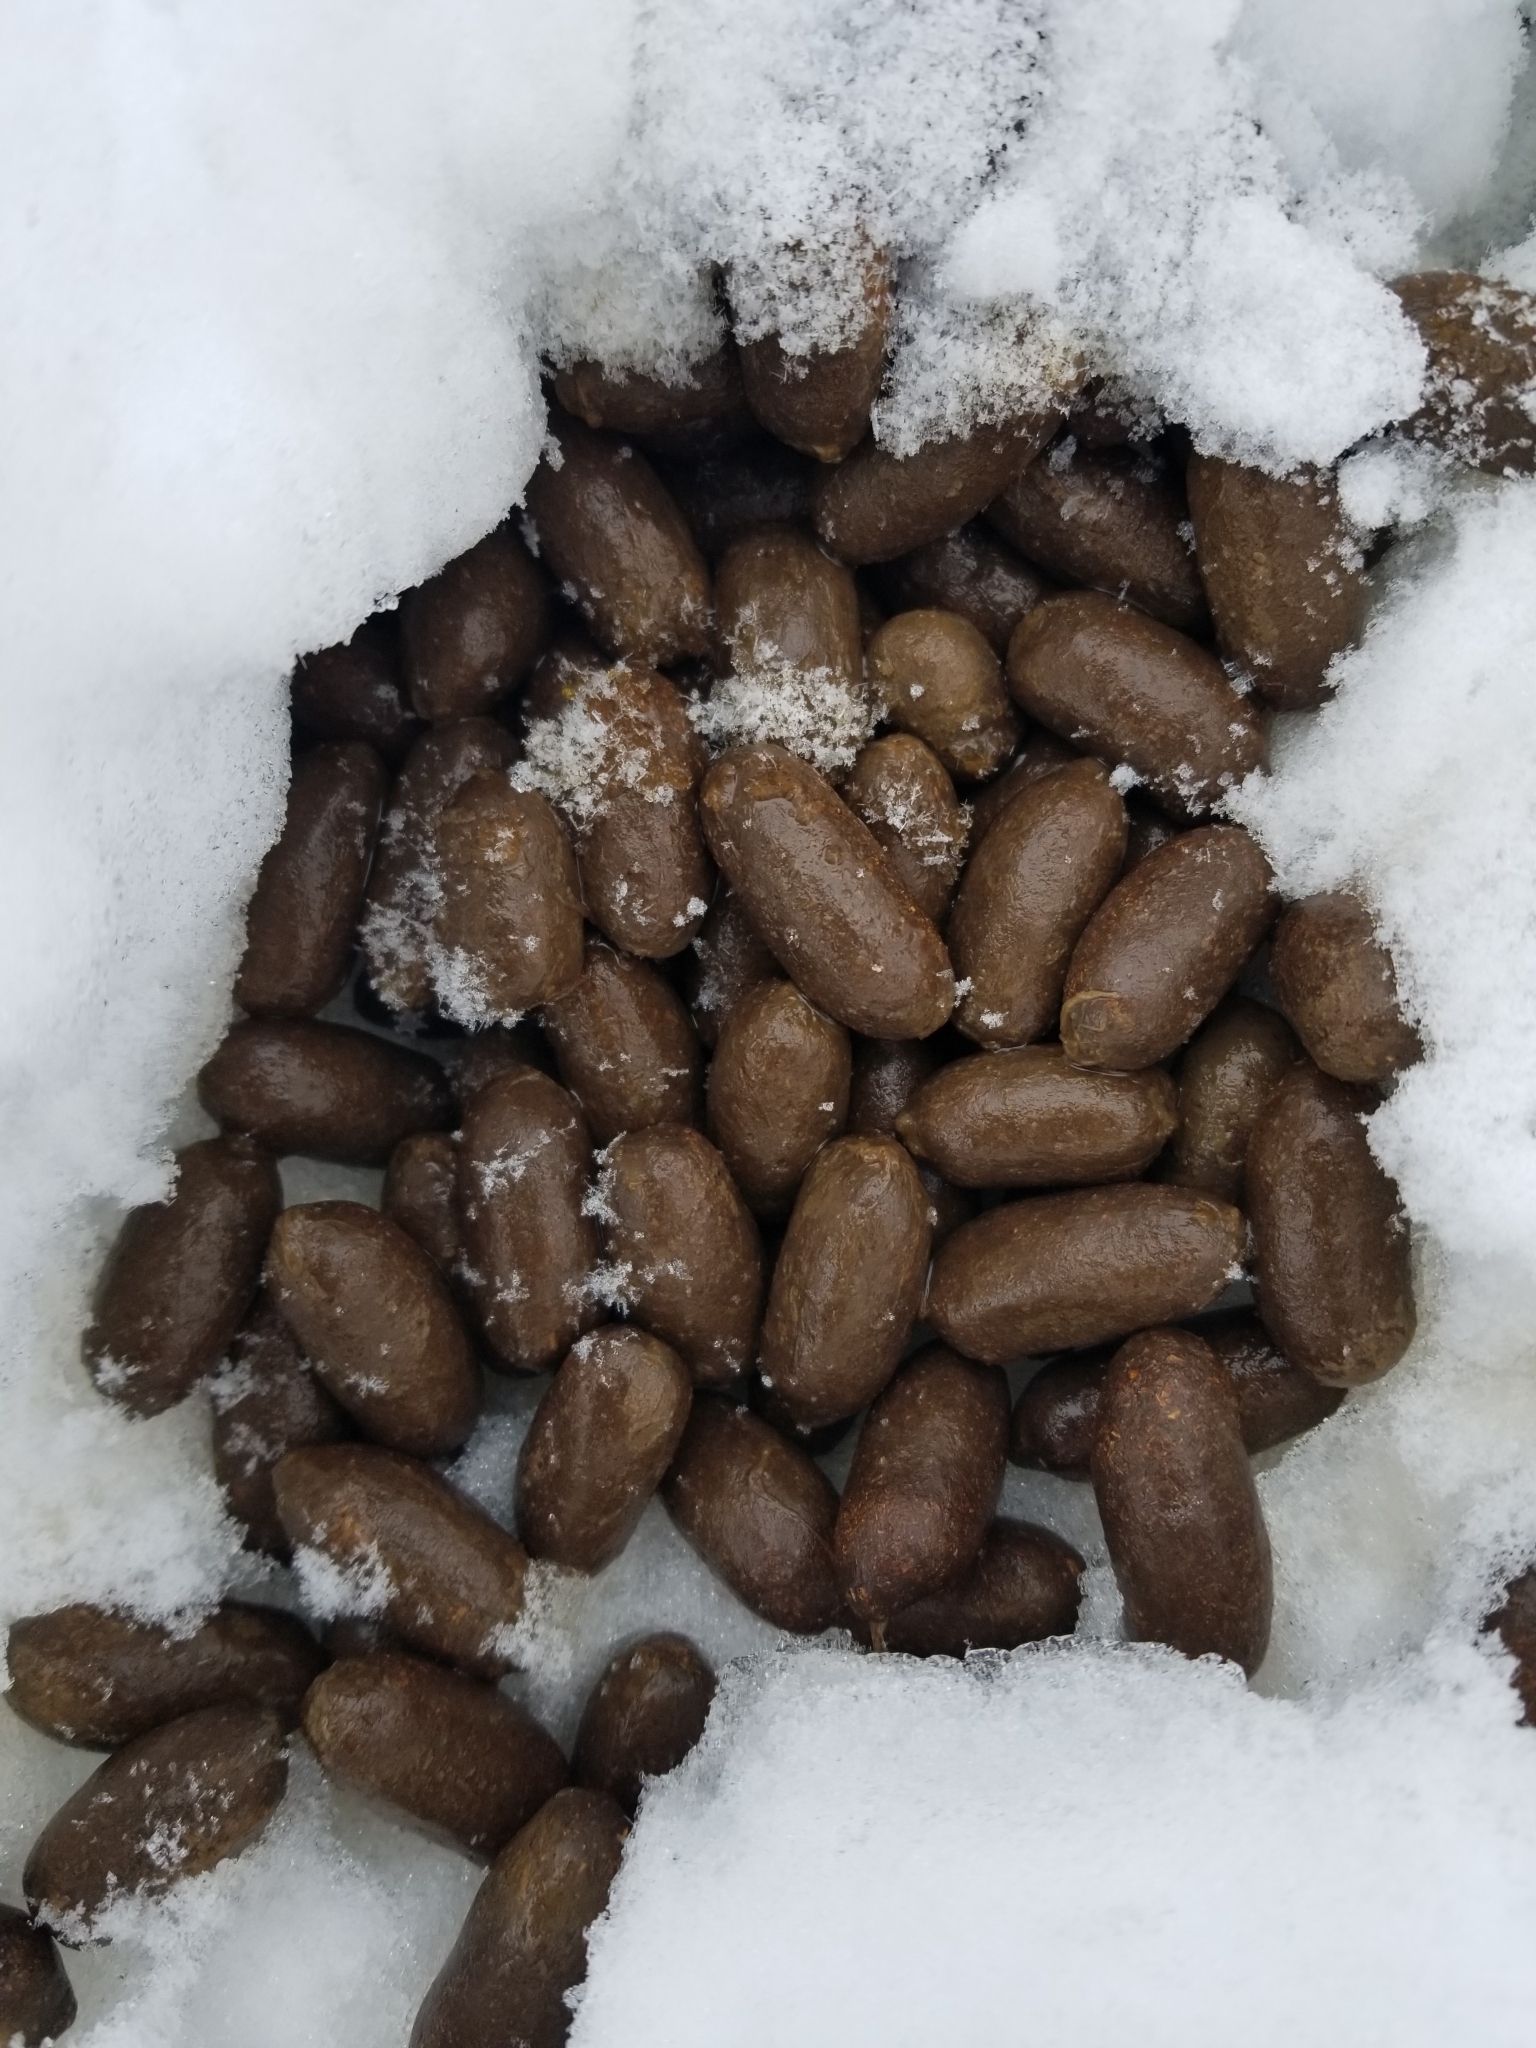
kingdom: Animalia
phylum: Chordata
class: Mammalia
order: Artiodactyla
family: Cervidae
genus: Alces
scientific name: Alces alces
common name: Moose
